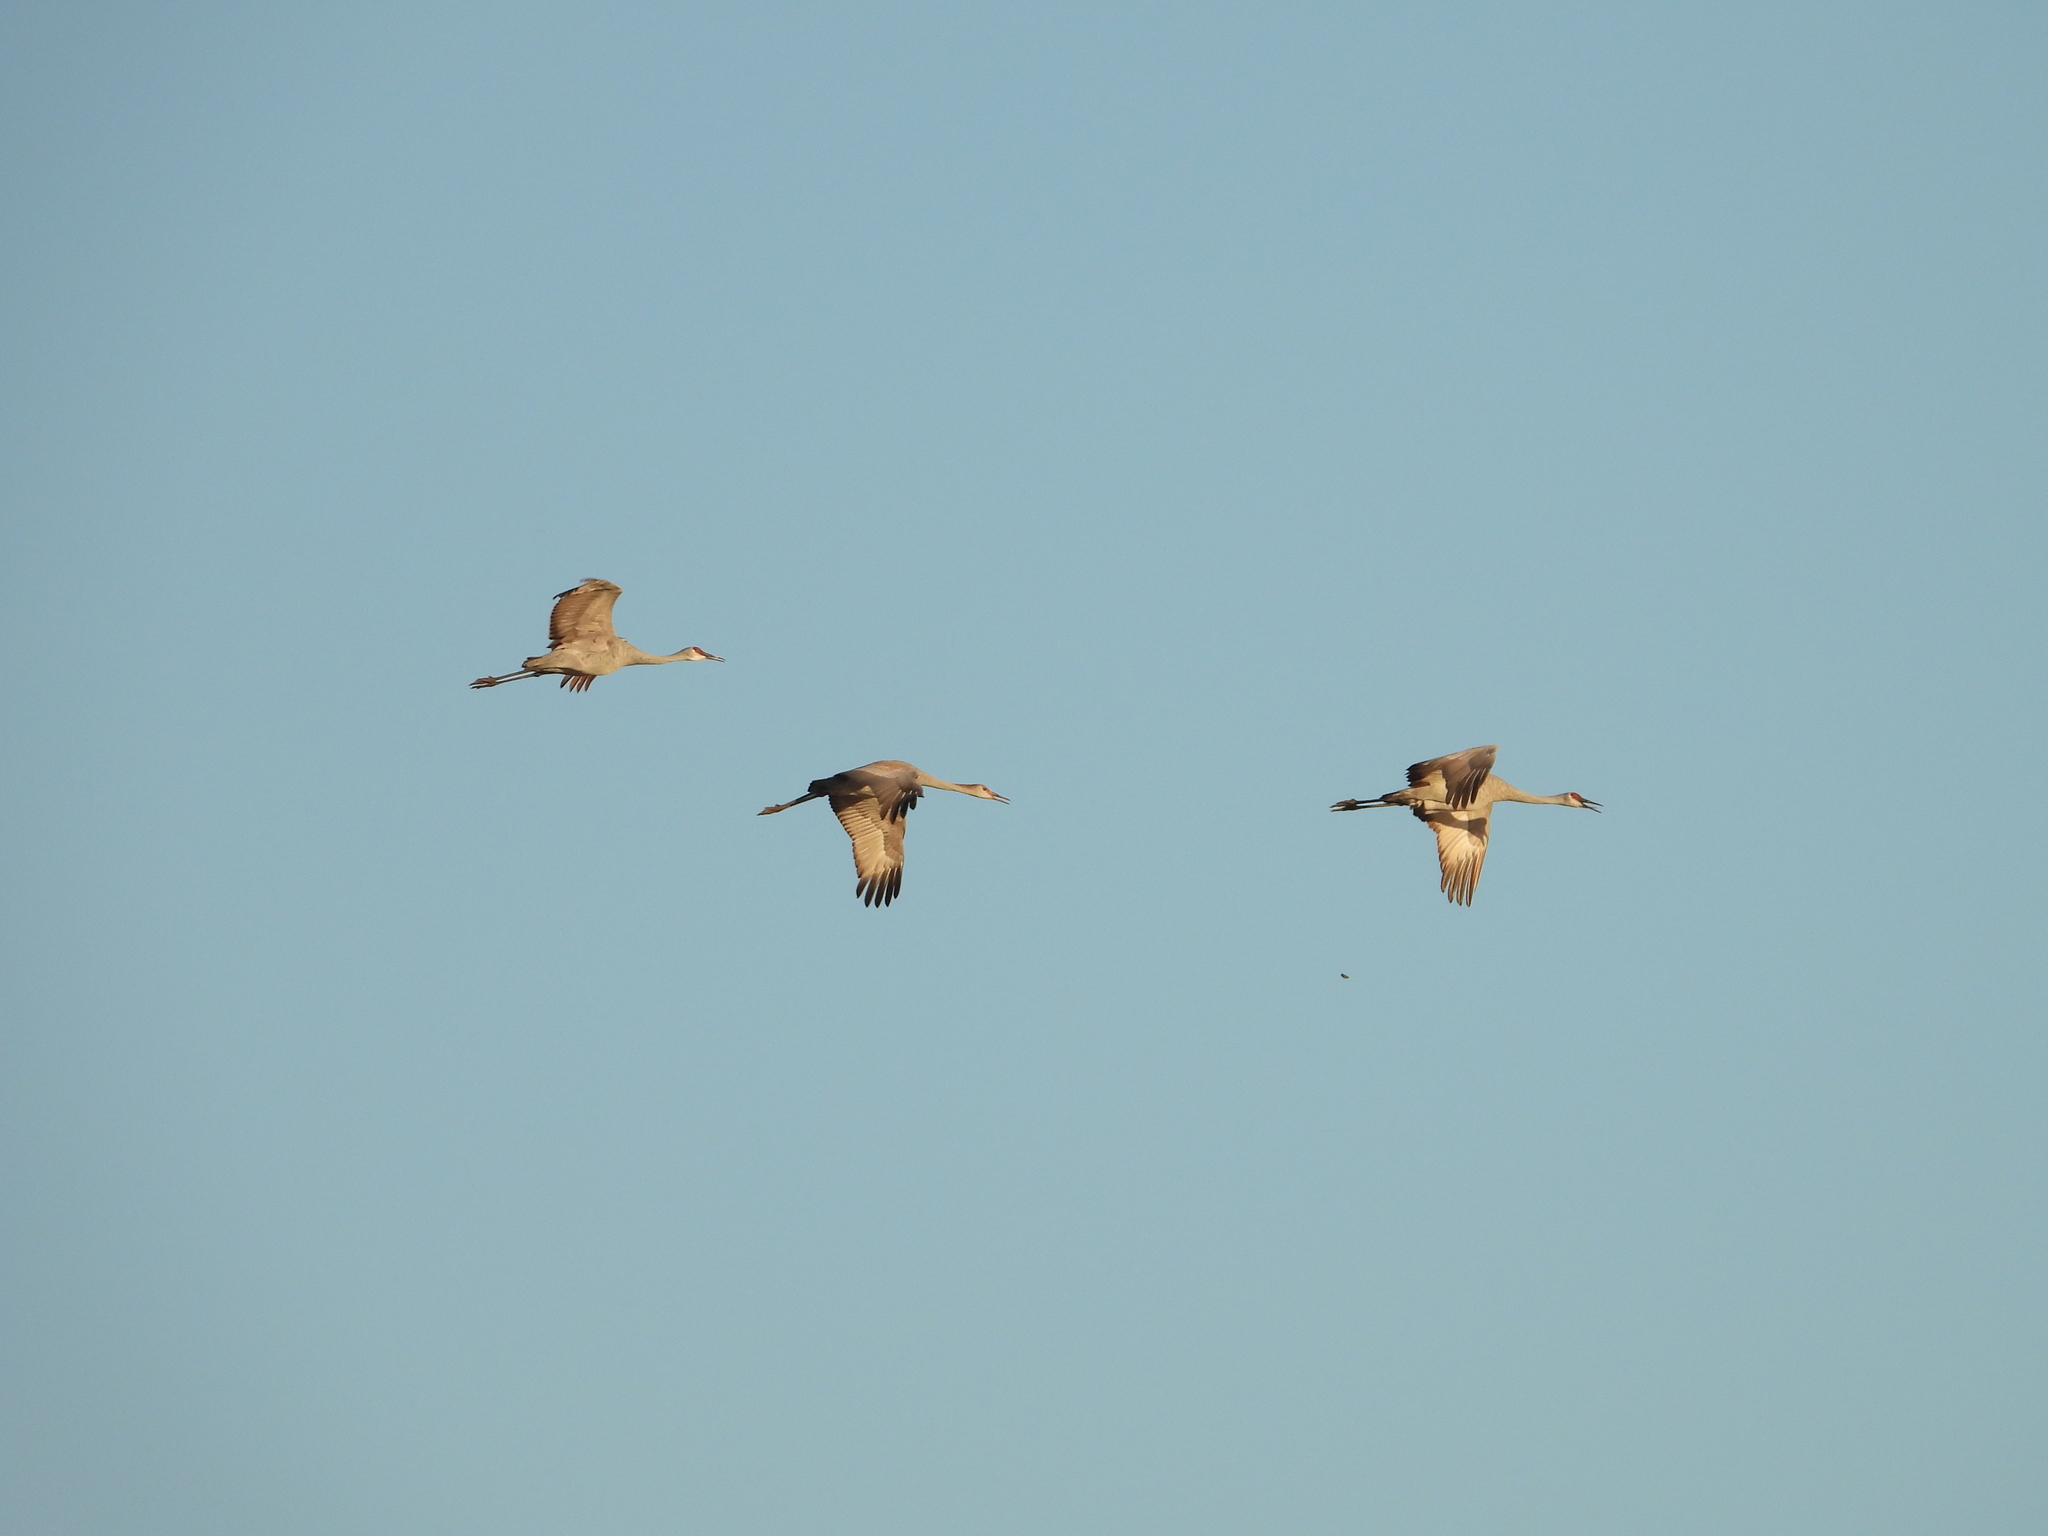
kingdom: Animalia
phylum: Chordata
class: Aves
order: Gruiformes
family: Gruidae
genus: Grus
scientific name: Grus canadensis
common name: Sandhill crane
